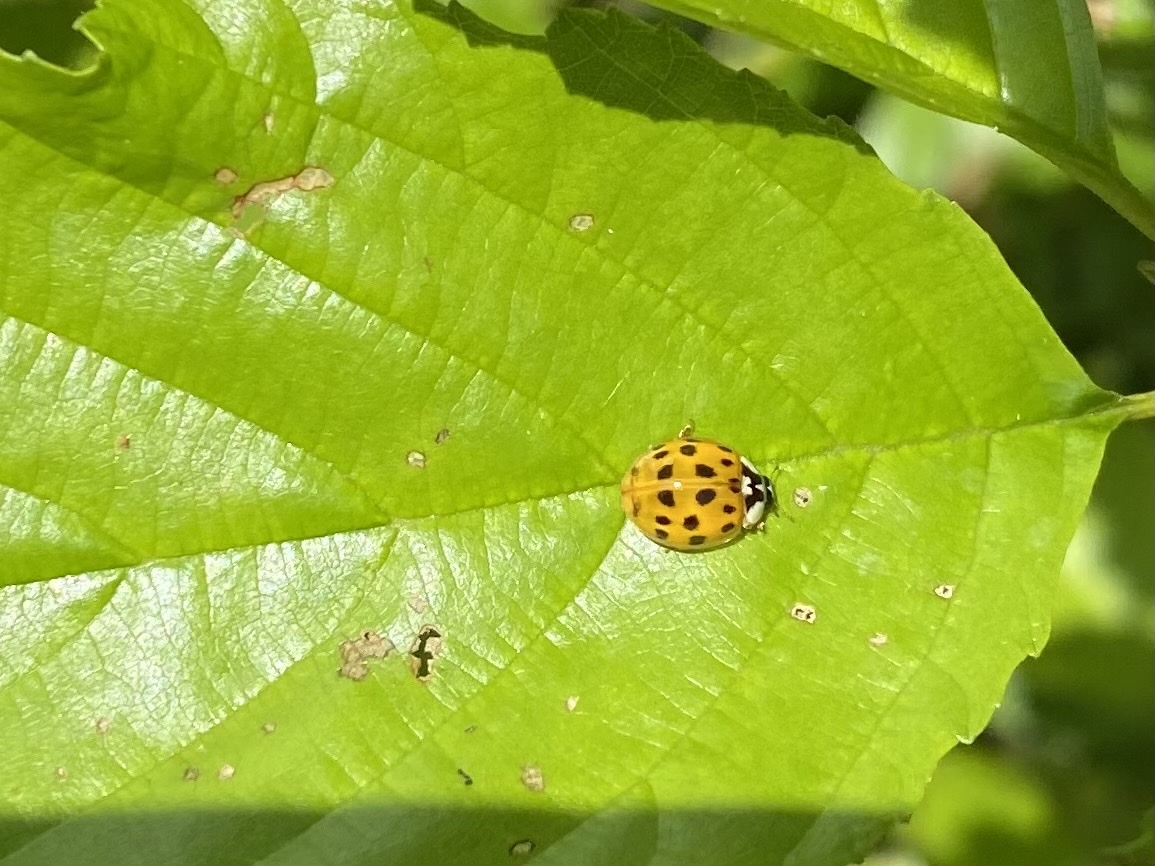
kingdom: Animalia
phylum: Arthropoda
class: Insecta
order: Coleoptera
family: Coccinellidae
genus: Harmonia
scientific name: Harmonia axyridis
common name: Harlequin ladybird
